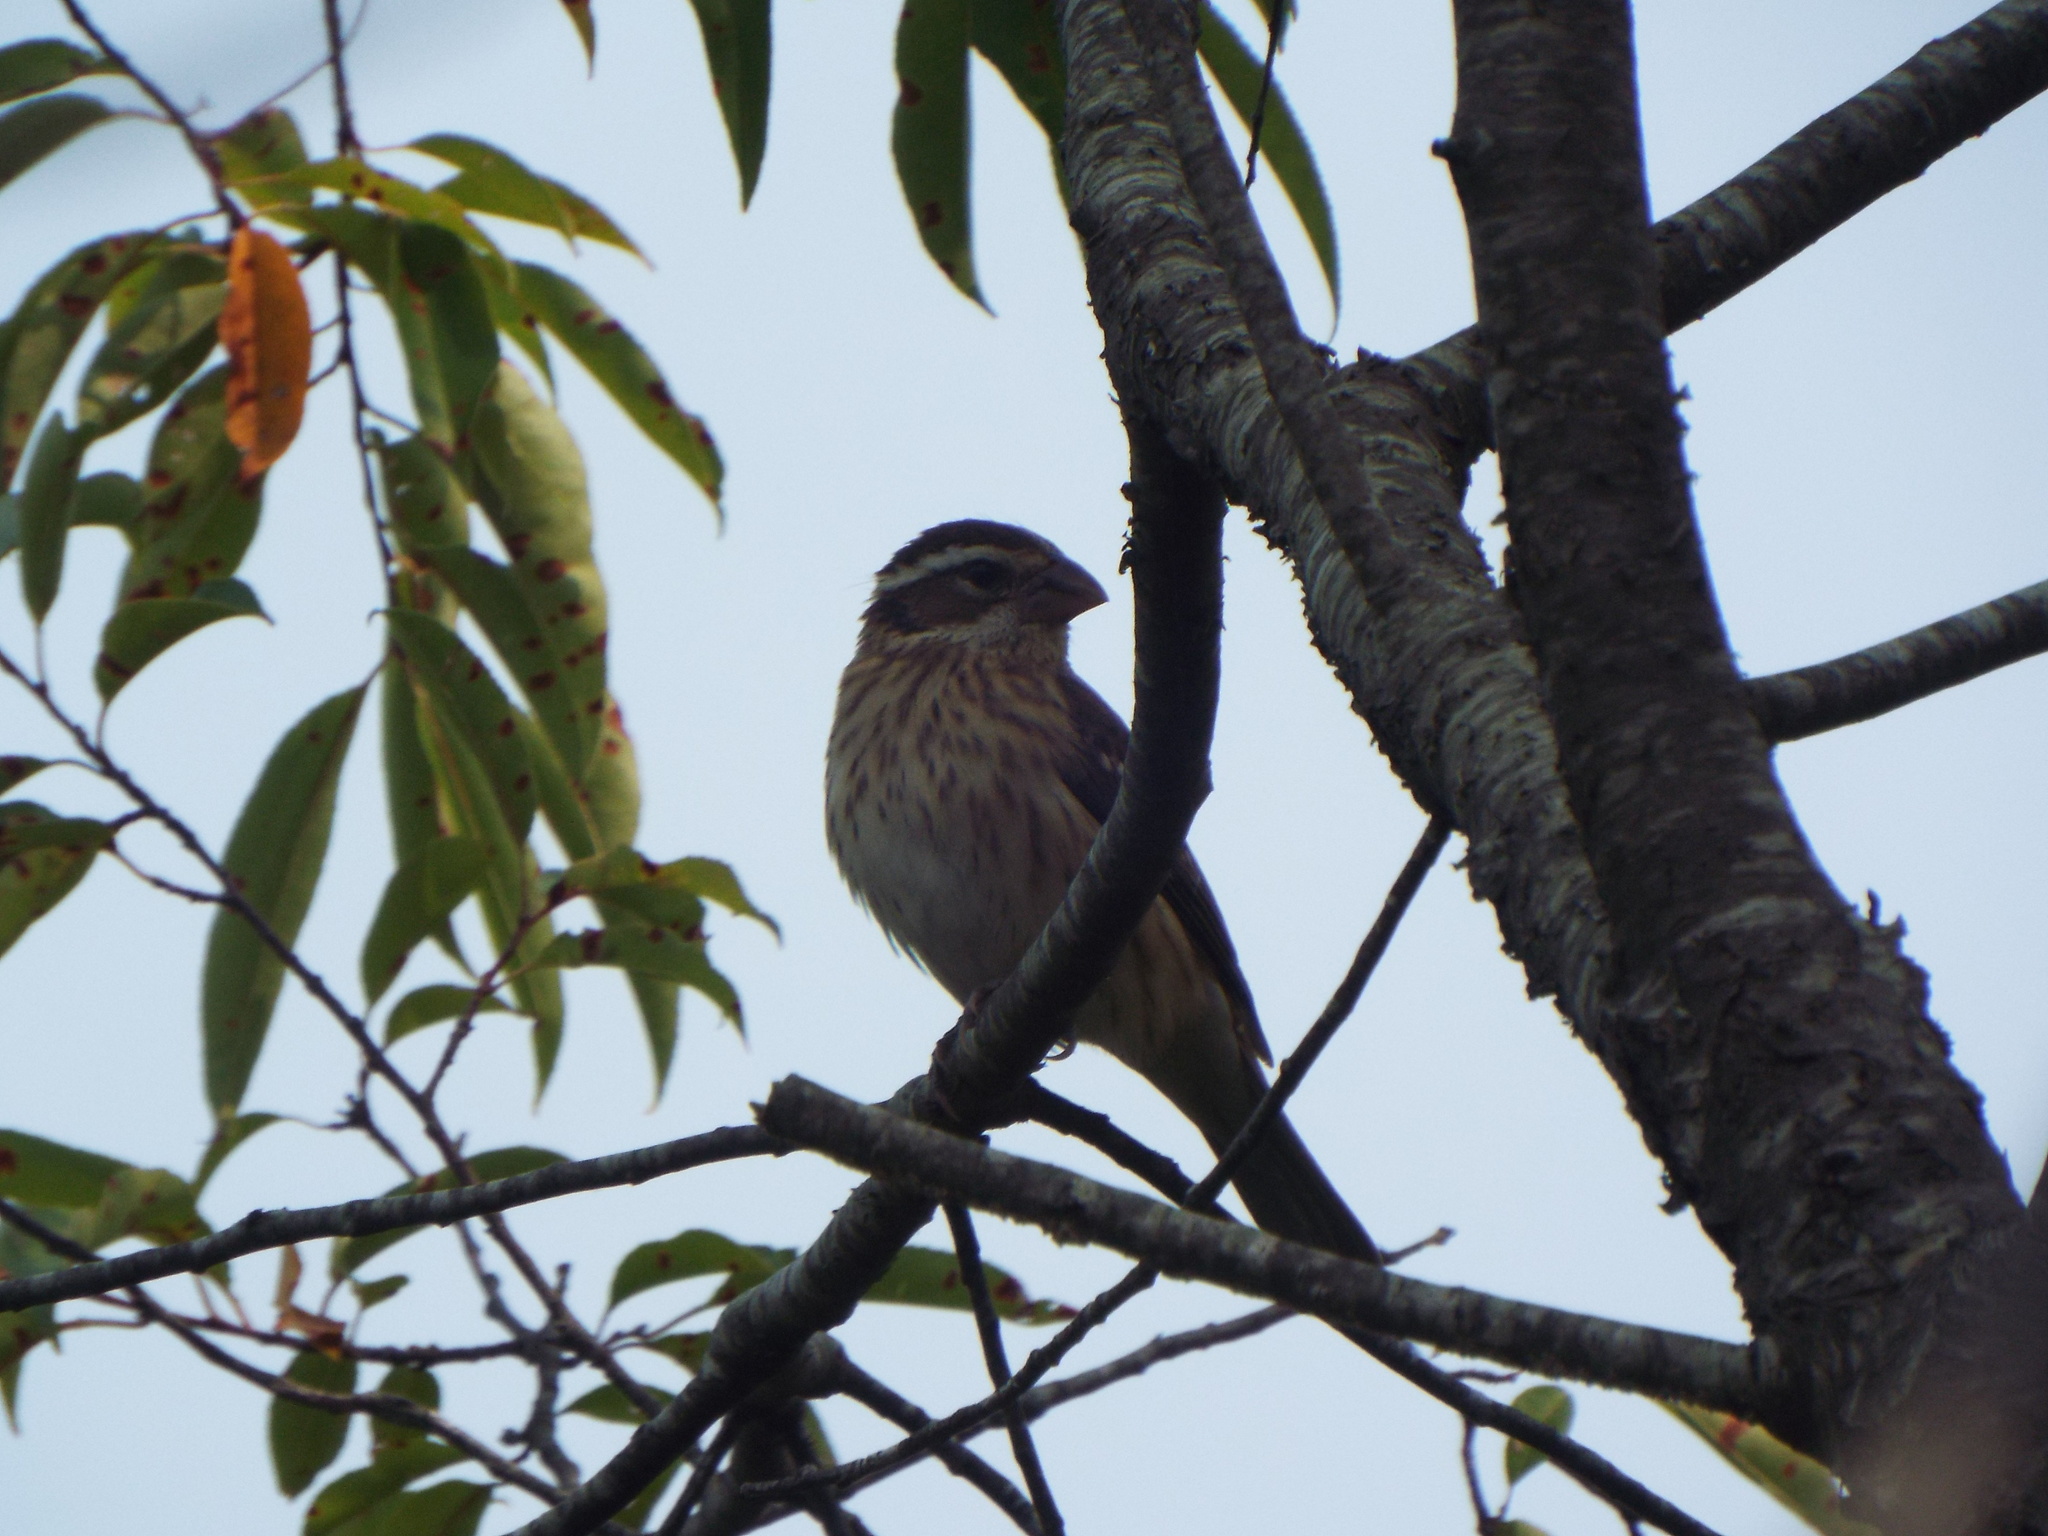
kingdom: Animalia
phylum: Chordata
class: Aves
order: Passeriformes
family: Cardinalidae
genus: Pheucticus
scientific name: Pheucticus ludovicianus
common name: Rose-breasted grosbeak
